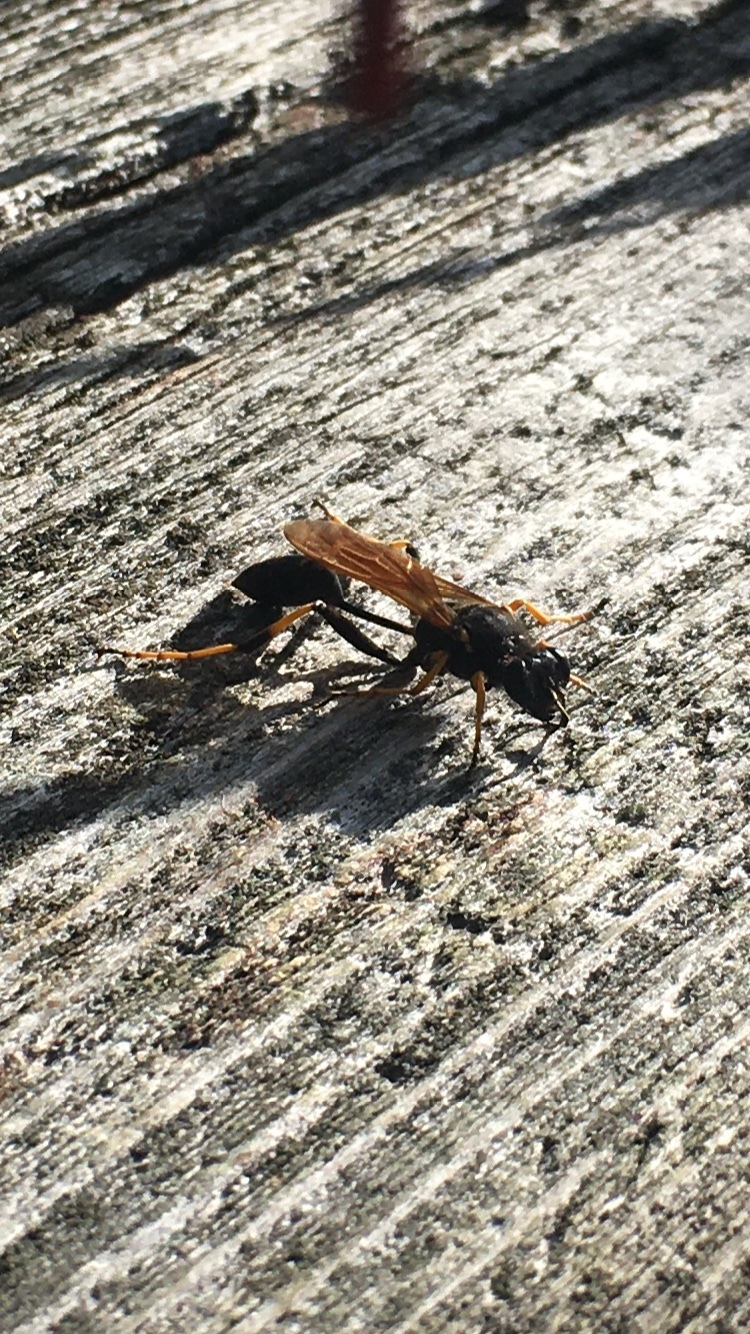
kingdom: Animalia
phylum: Arthropoda
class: Insecta
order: Hymenoptera
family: Sphecidae
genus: Sceliphron
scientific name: Sceliphron caementarium
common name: Mud dauber
